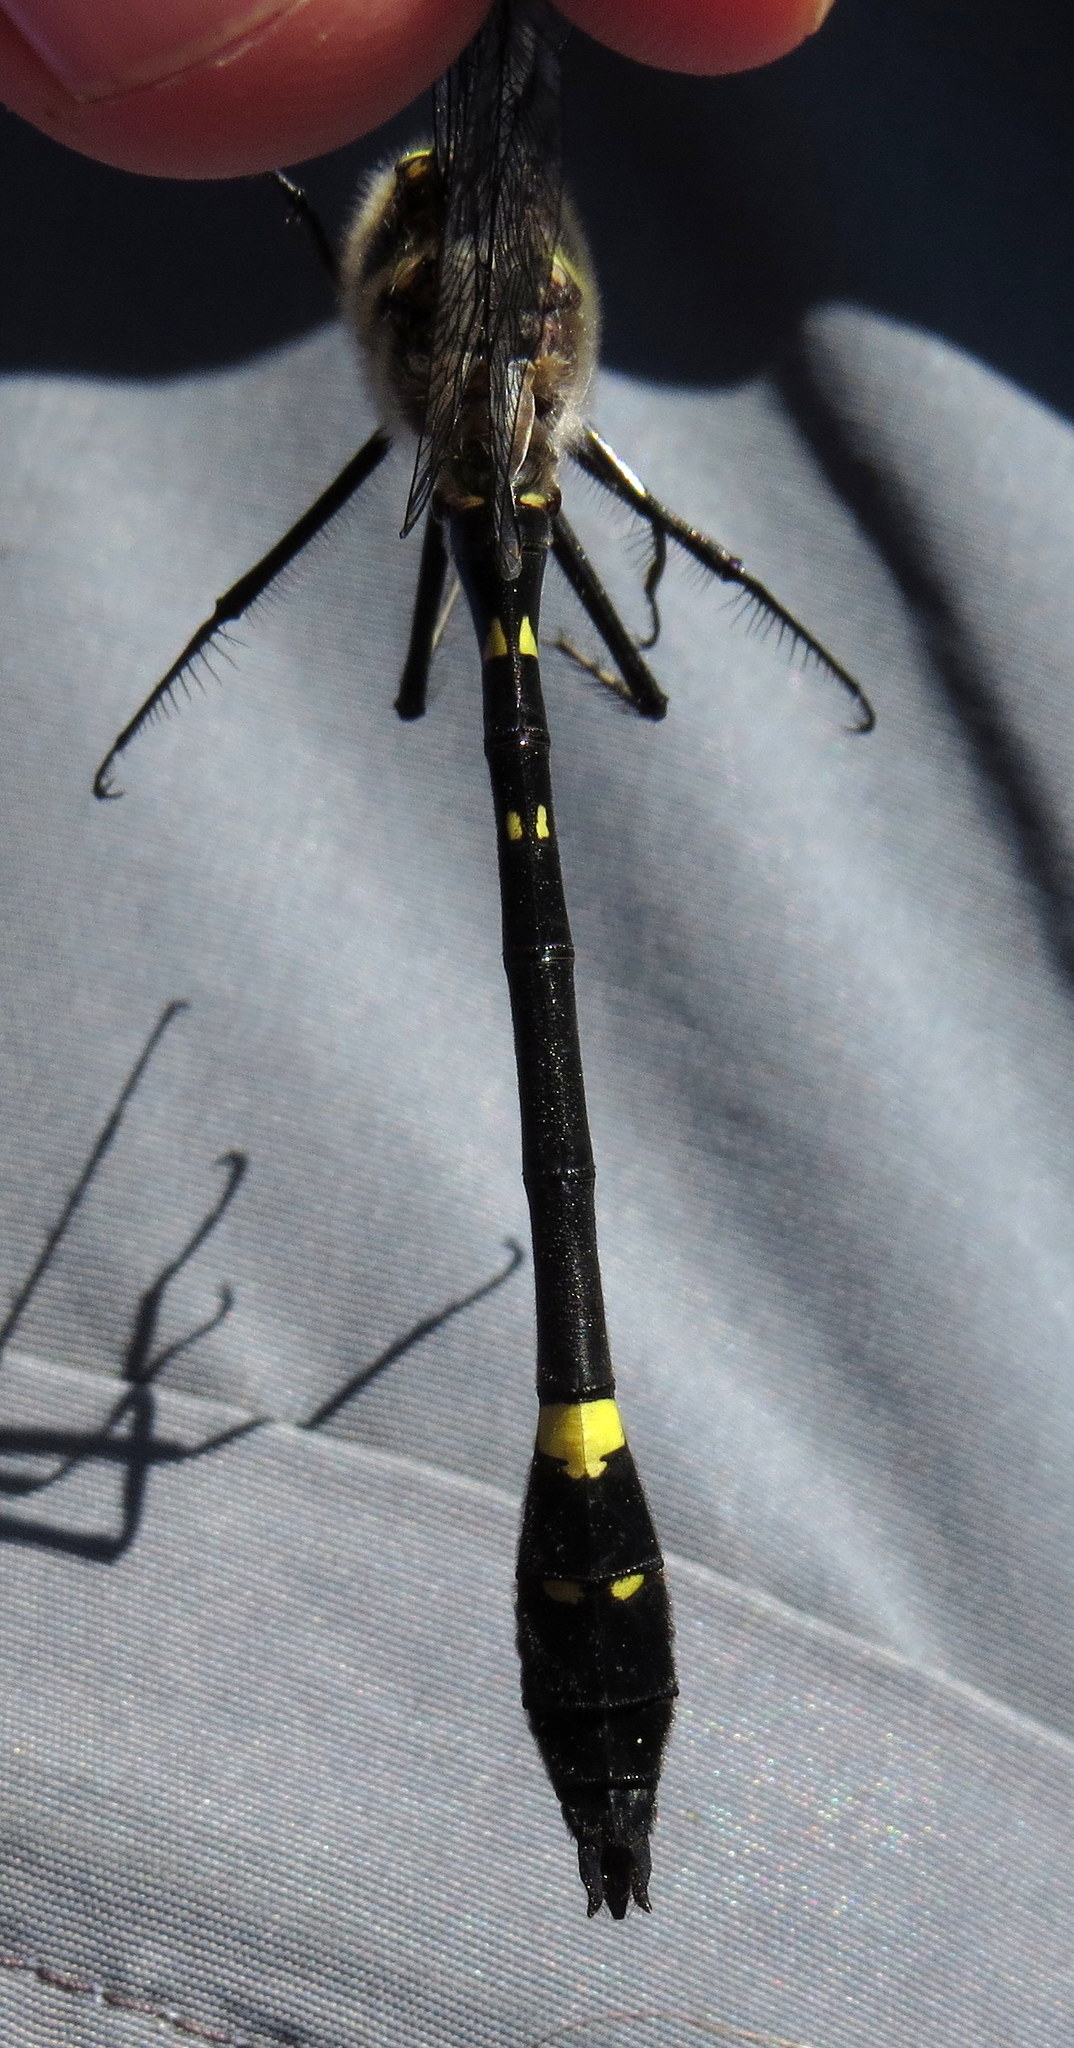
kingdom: Animalia
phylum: Arthropoda
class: Insecta
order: Odonata
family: Macromiidae
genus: Macromia
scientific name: Macromia illinoiensis
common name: Swift river cruiser
